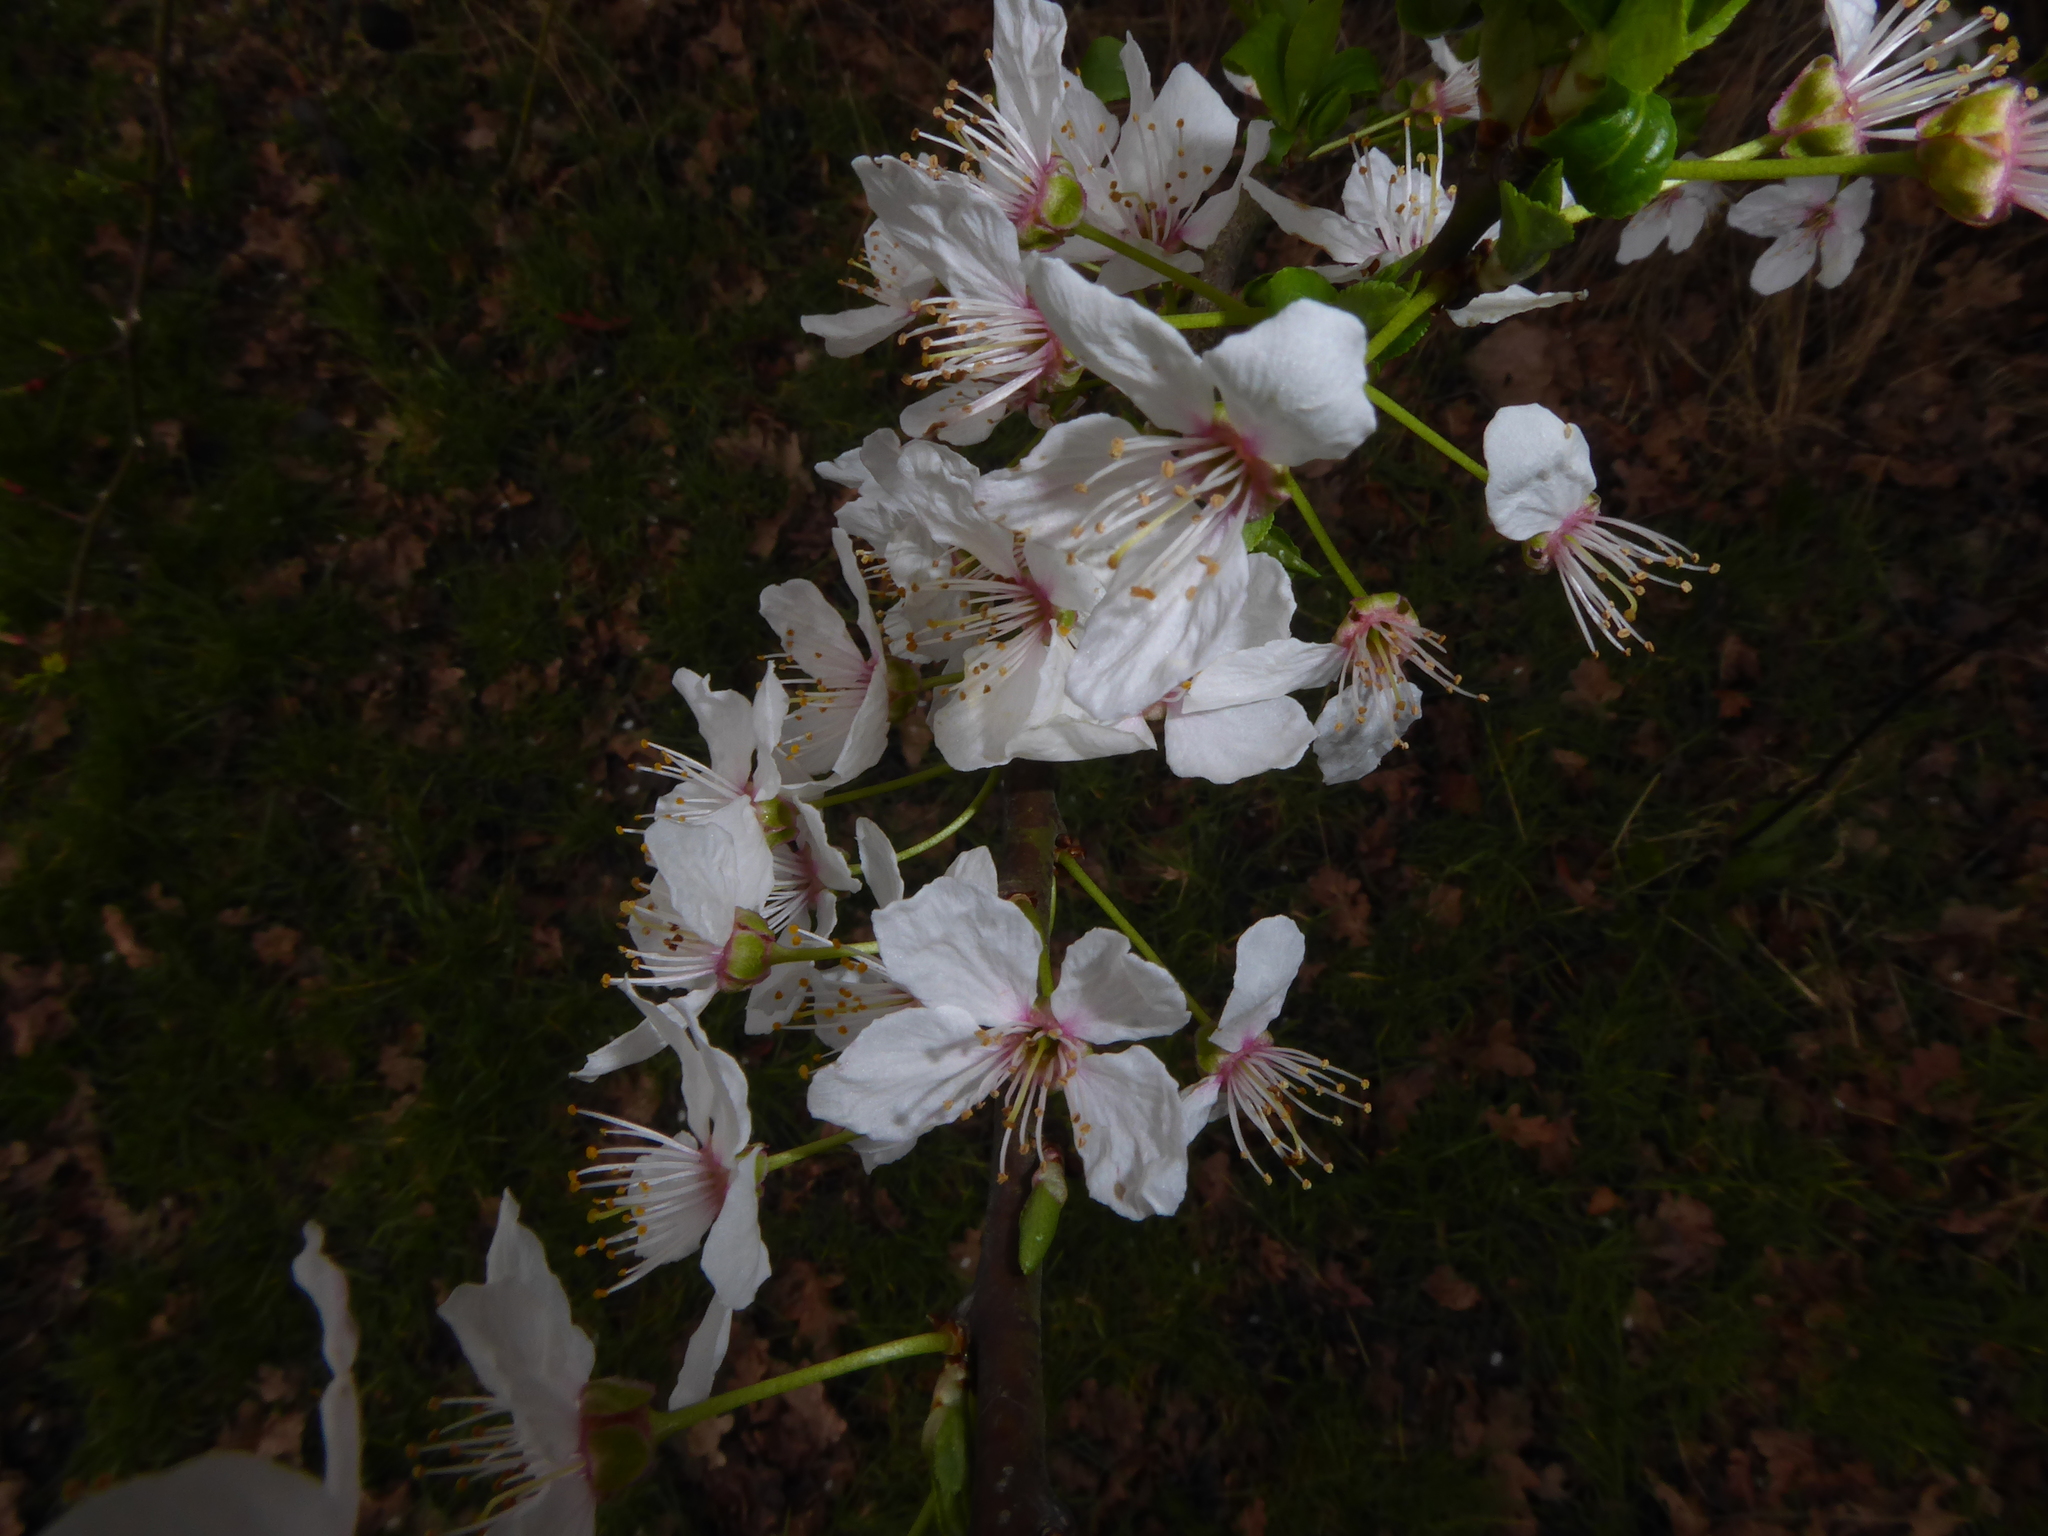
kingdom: Plantae
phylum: Tracheophyta
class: Magnoliopsida
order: Rosales
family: Rosaceae
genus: Prunus
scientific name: Prunus cerasifera
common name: Cherry plum
